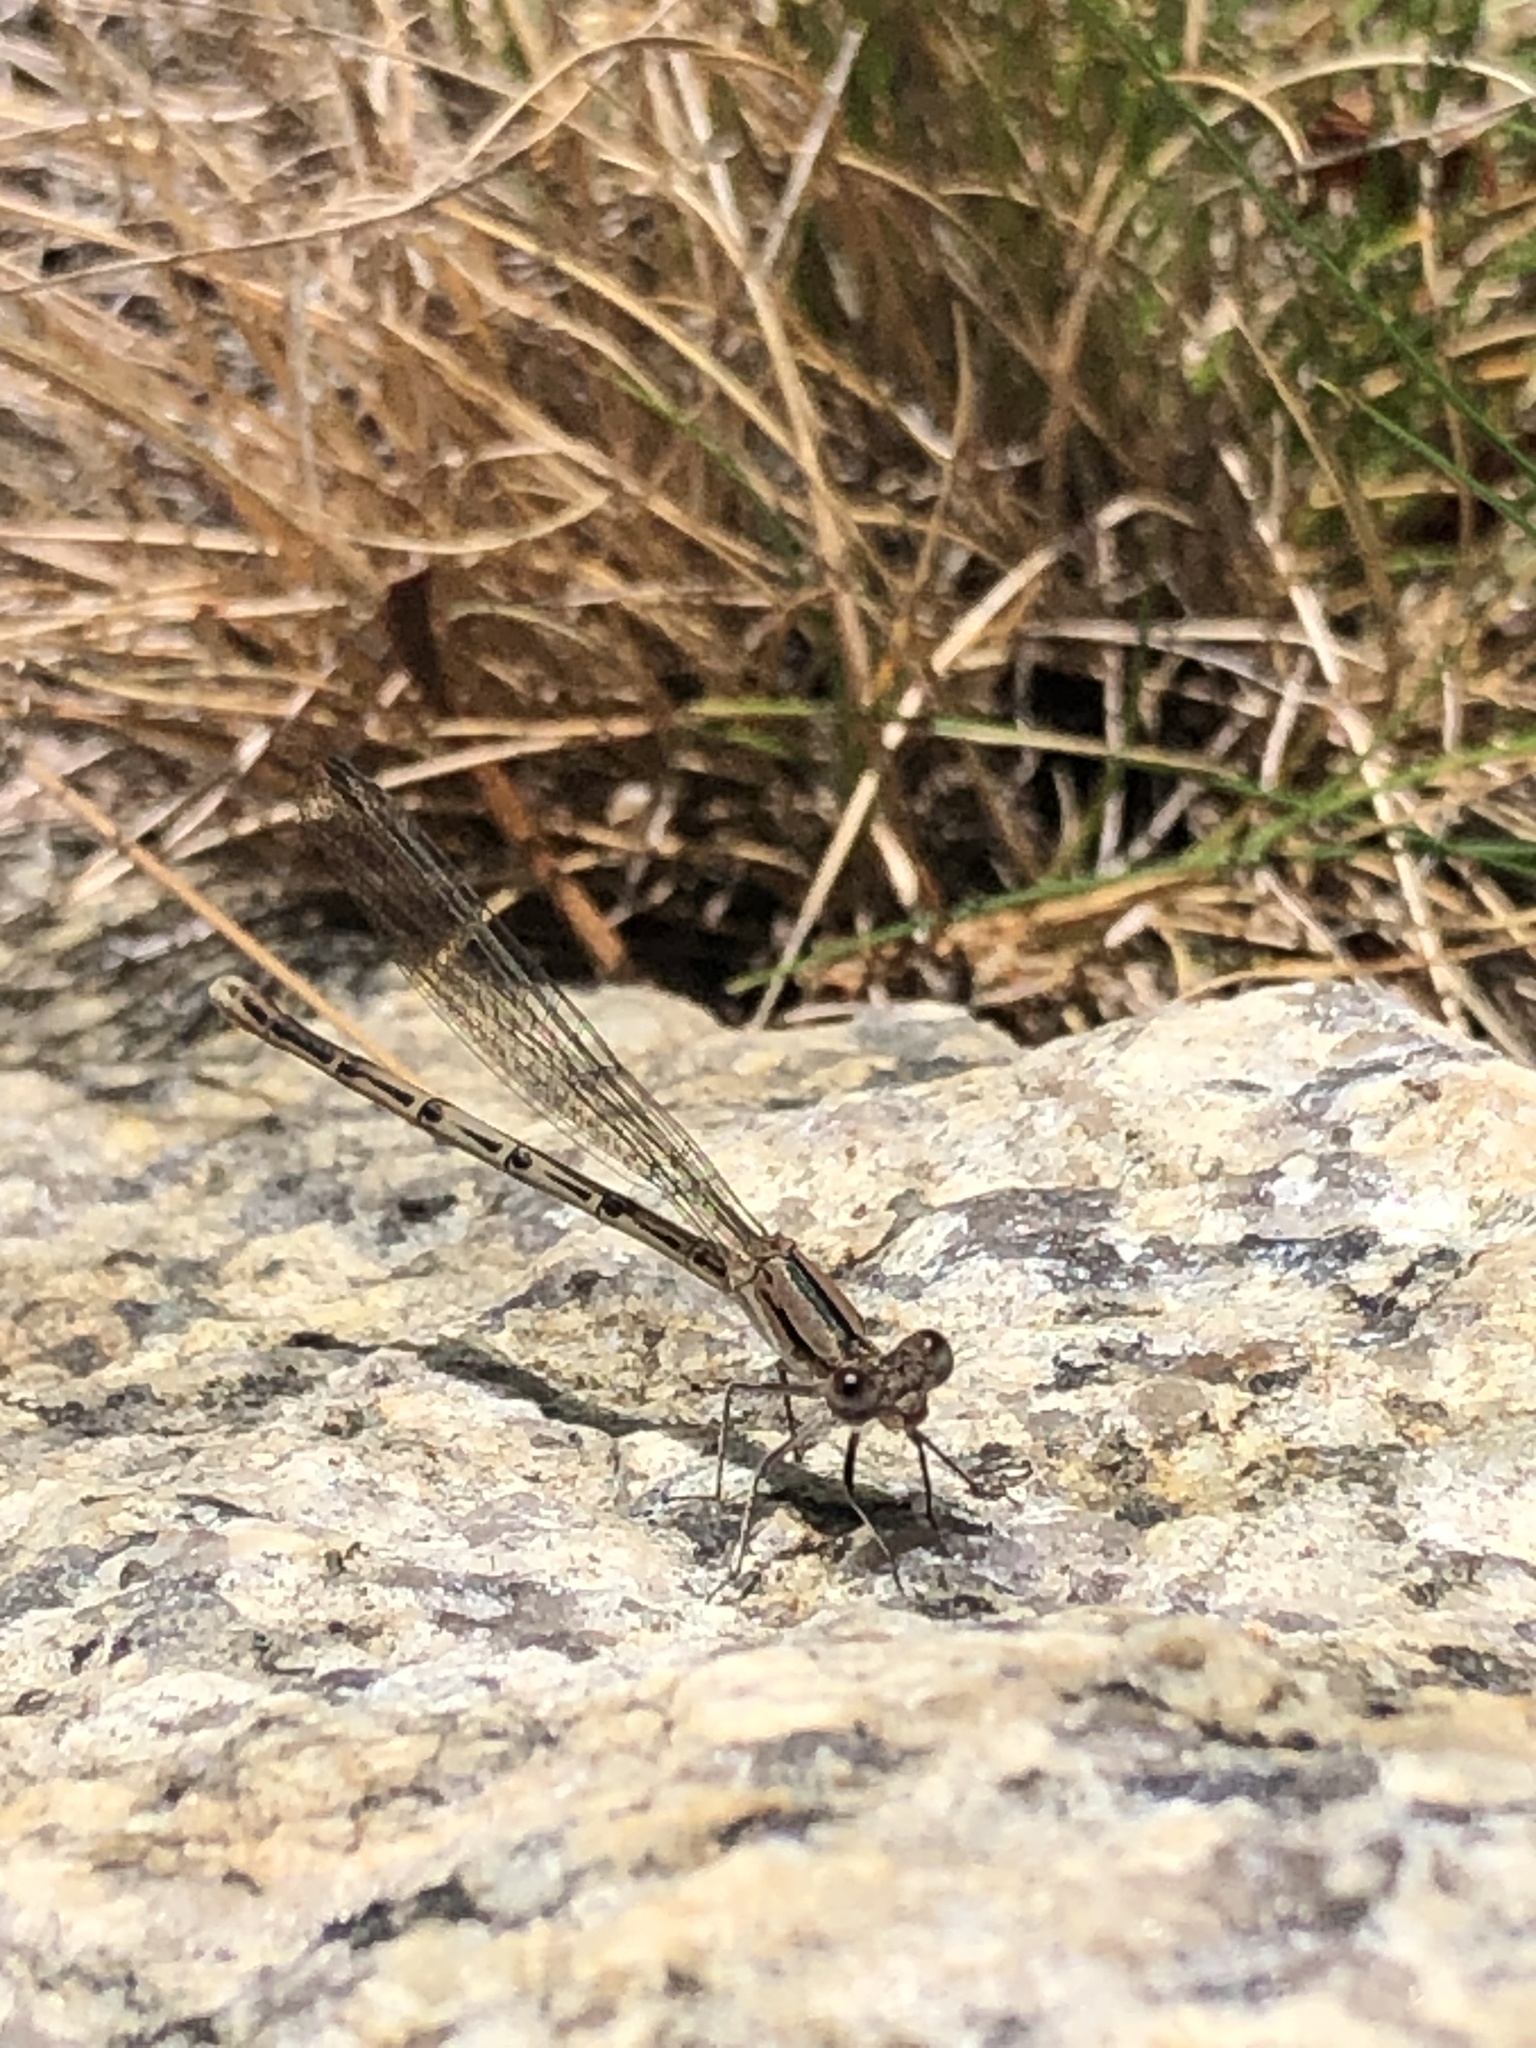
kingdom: Animalia
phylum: Arthropoda
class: Insecta
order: Odonata
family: Coenagrionidae
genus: Argia
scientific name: Argia fumipennis
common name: Variable dancer
